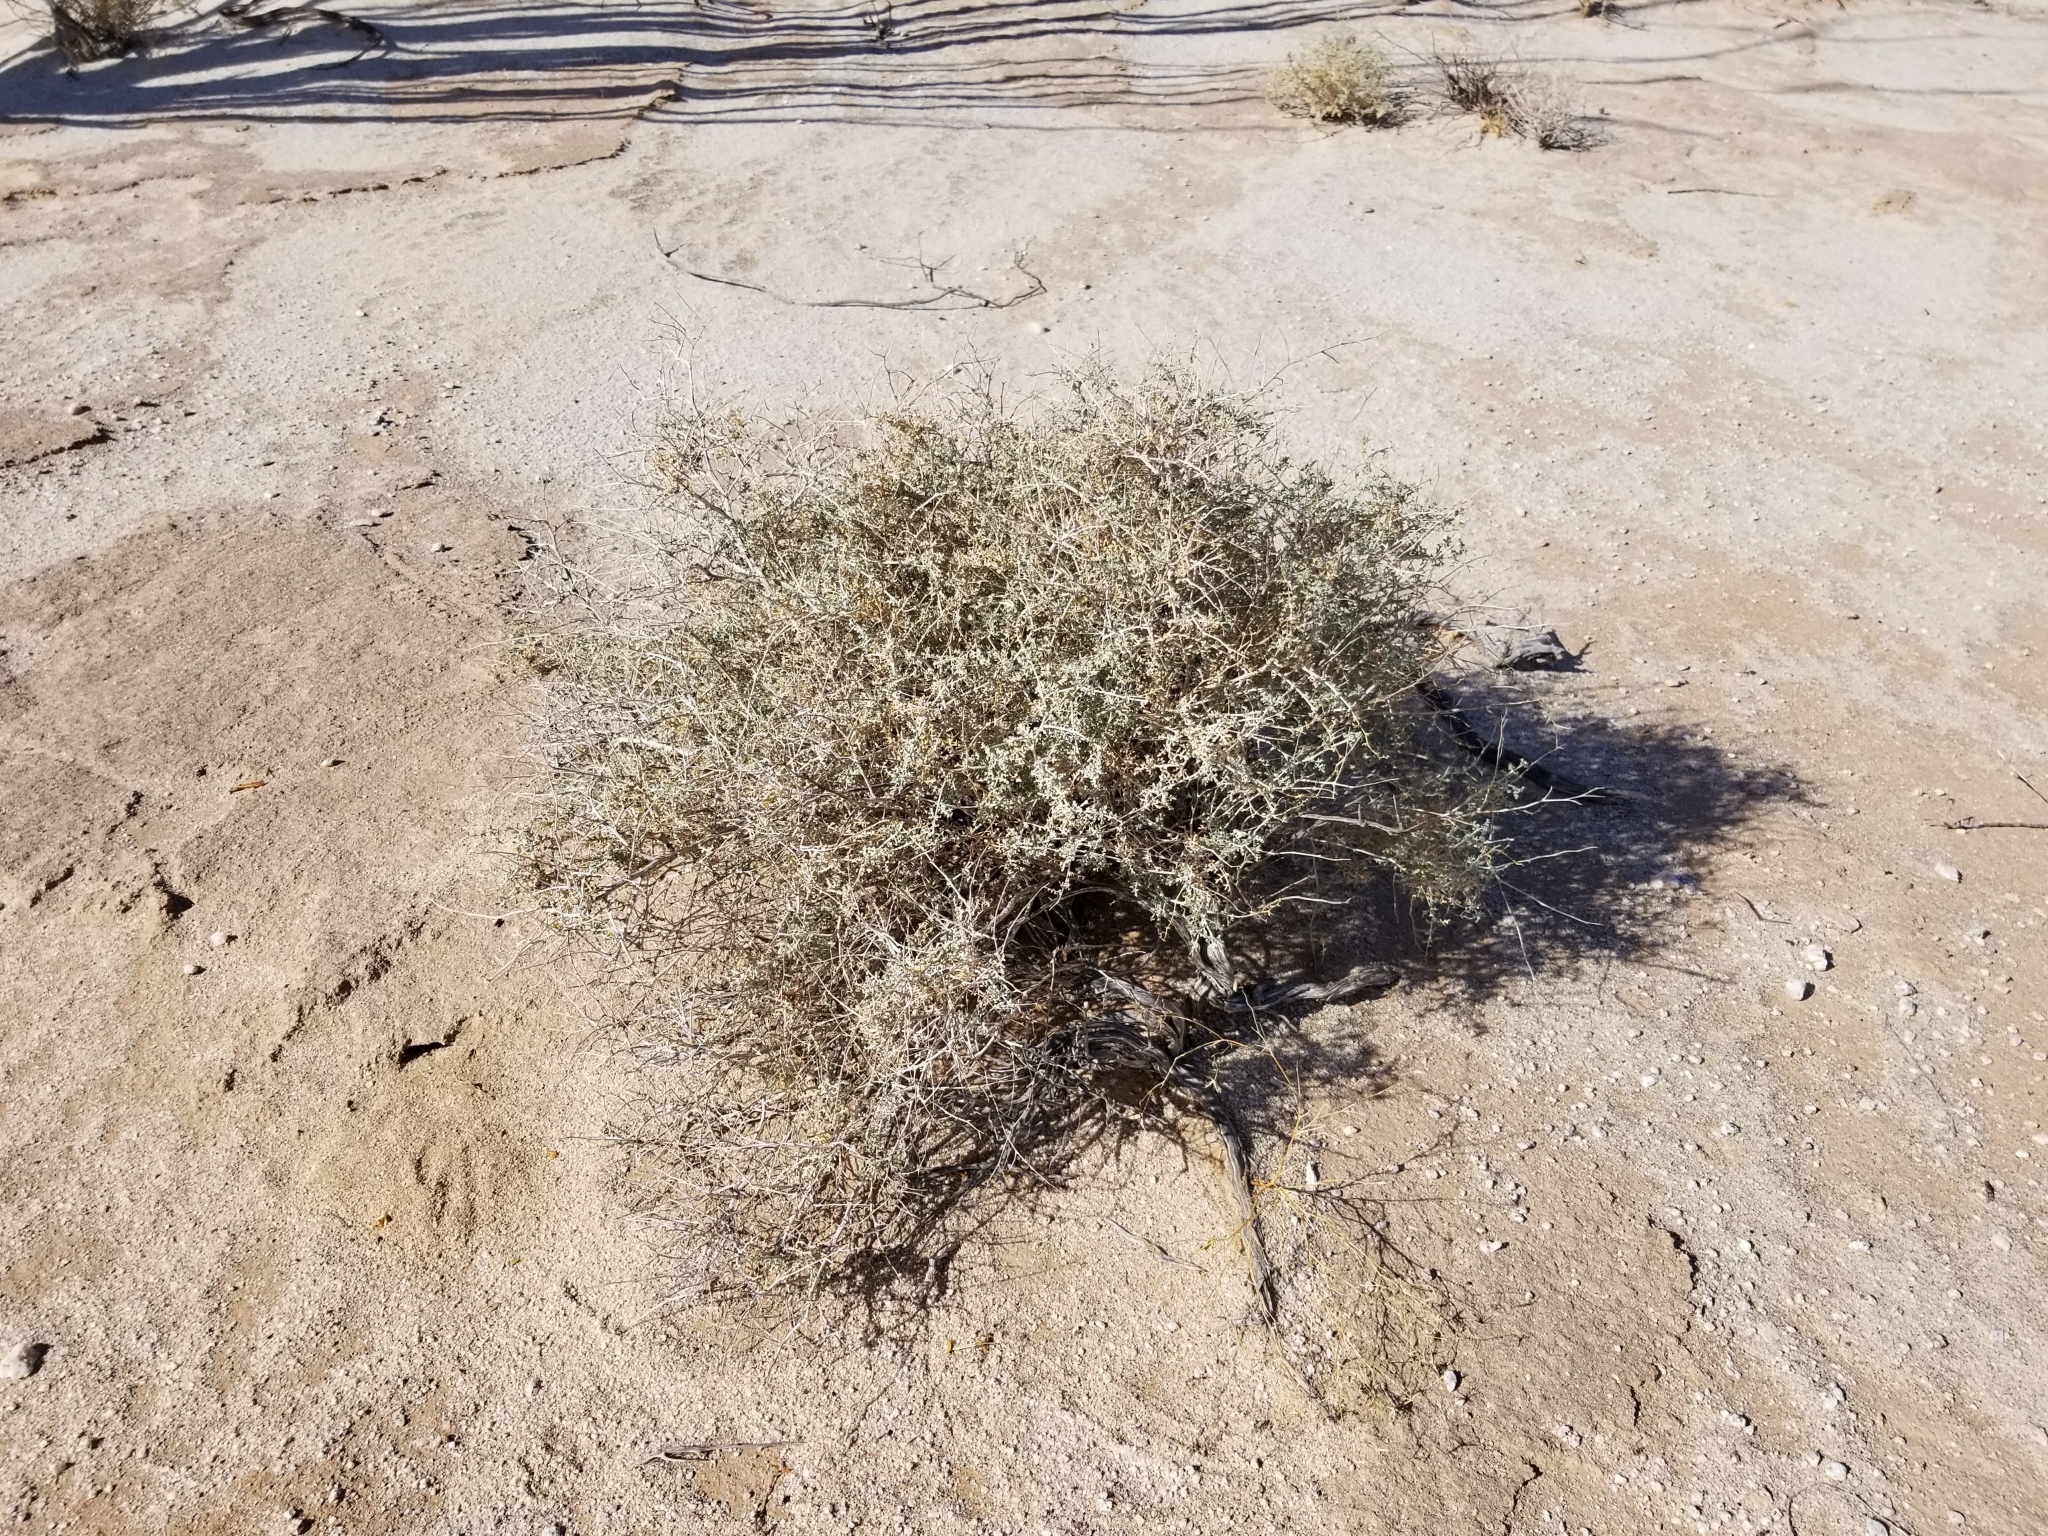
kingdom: Plantae
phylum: Tracheophyta
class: Magnoliopsida
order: Asterales
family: Asteraceae
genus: Ambrosia
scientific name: Ambrosia dumosa
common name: Bur-sage
